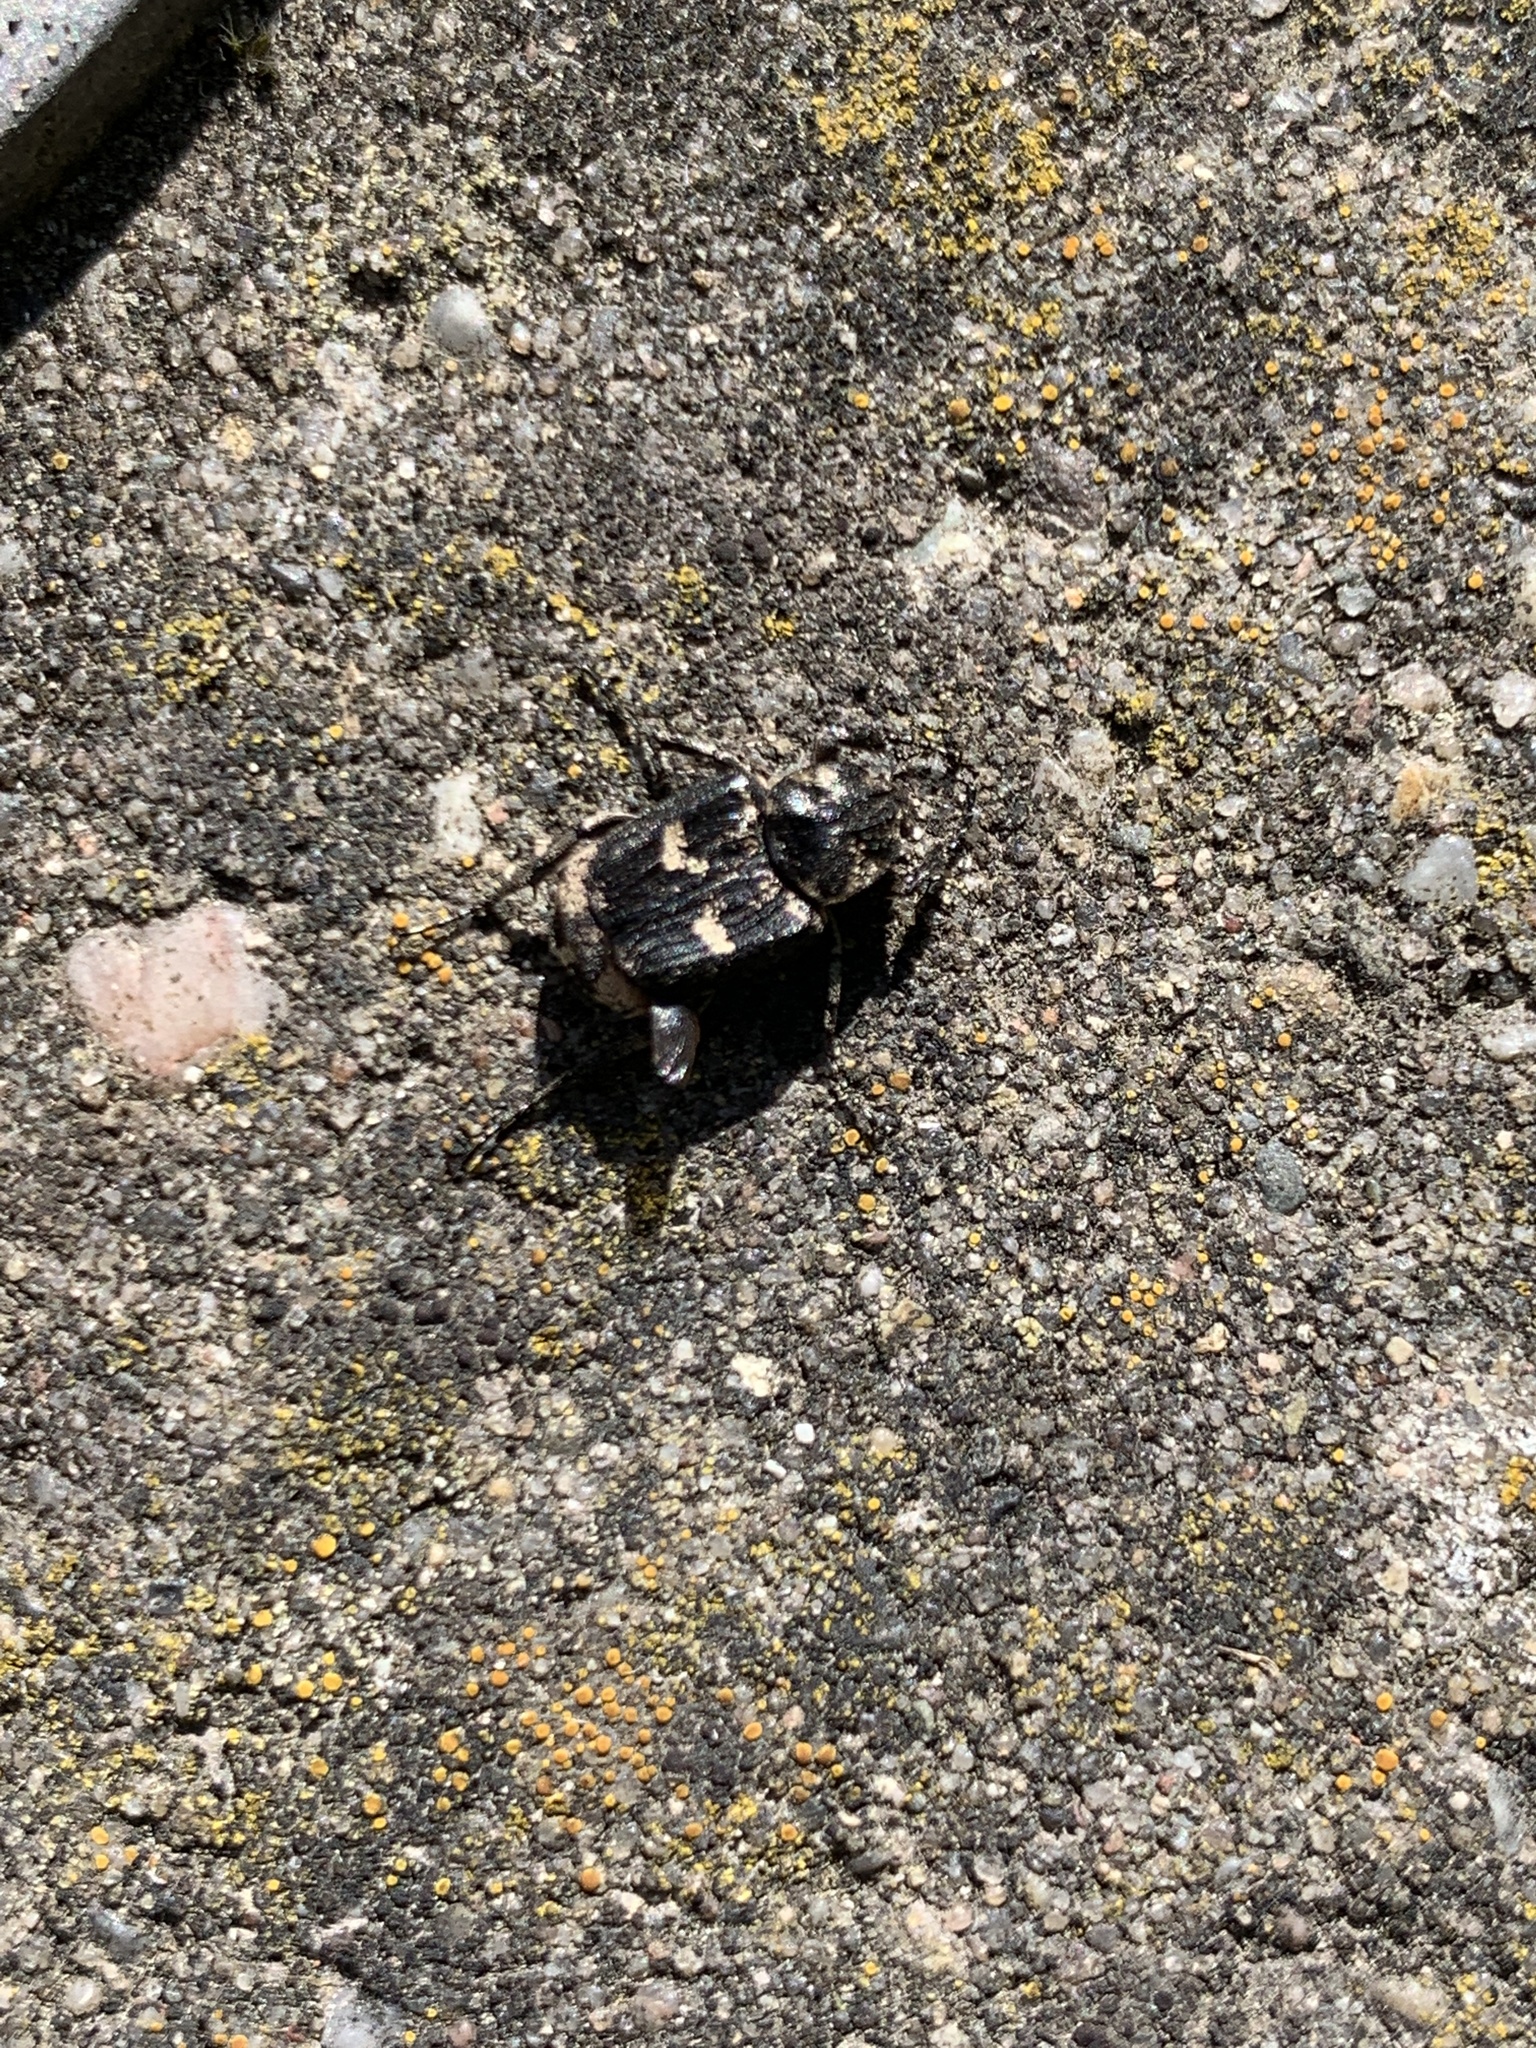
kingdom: Animalia
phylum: Arthropoda
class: Insecta
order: Coleoptera
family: Scarabaeidae
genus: Valgus
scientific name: Valgus hemipterus
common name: Bug flower chafer
